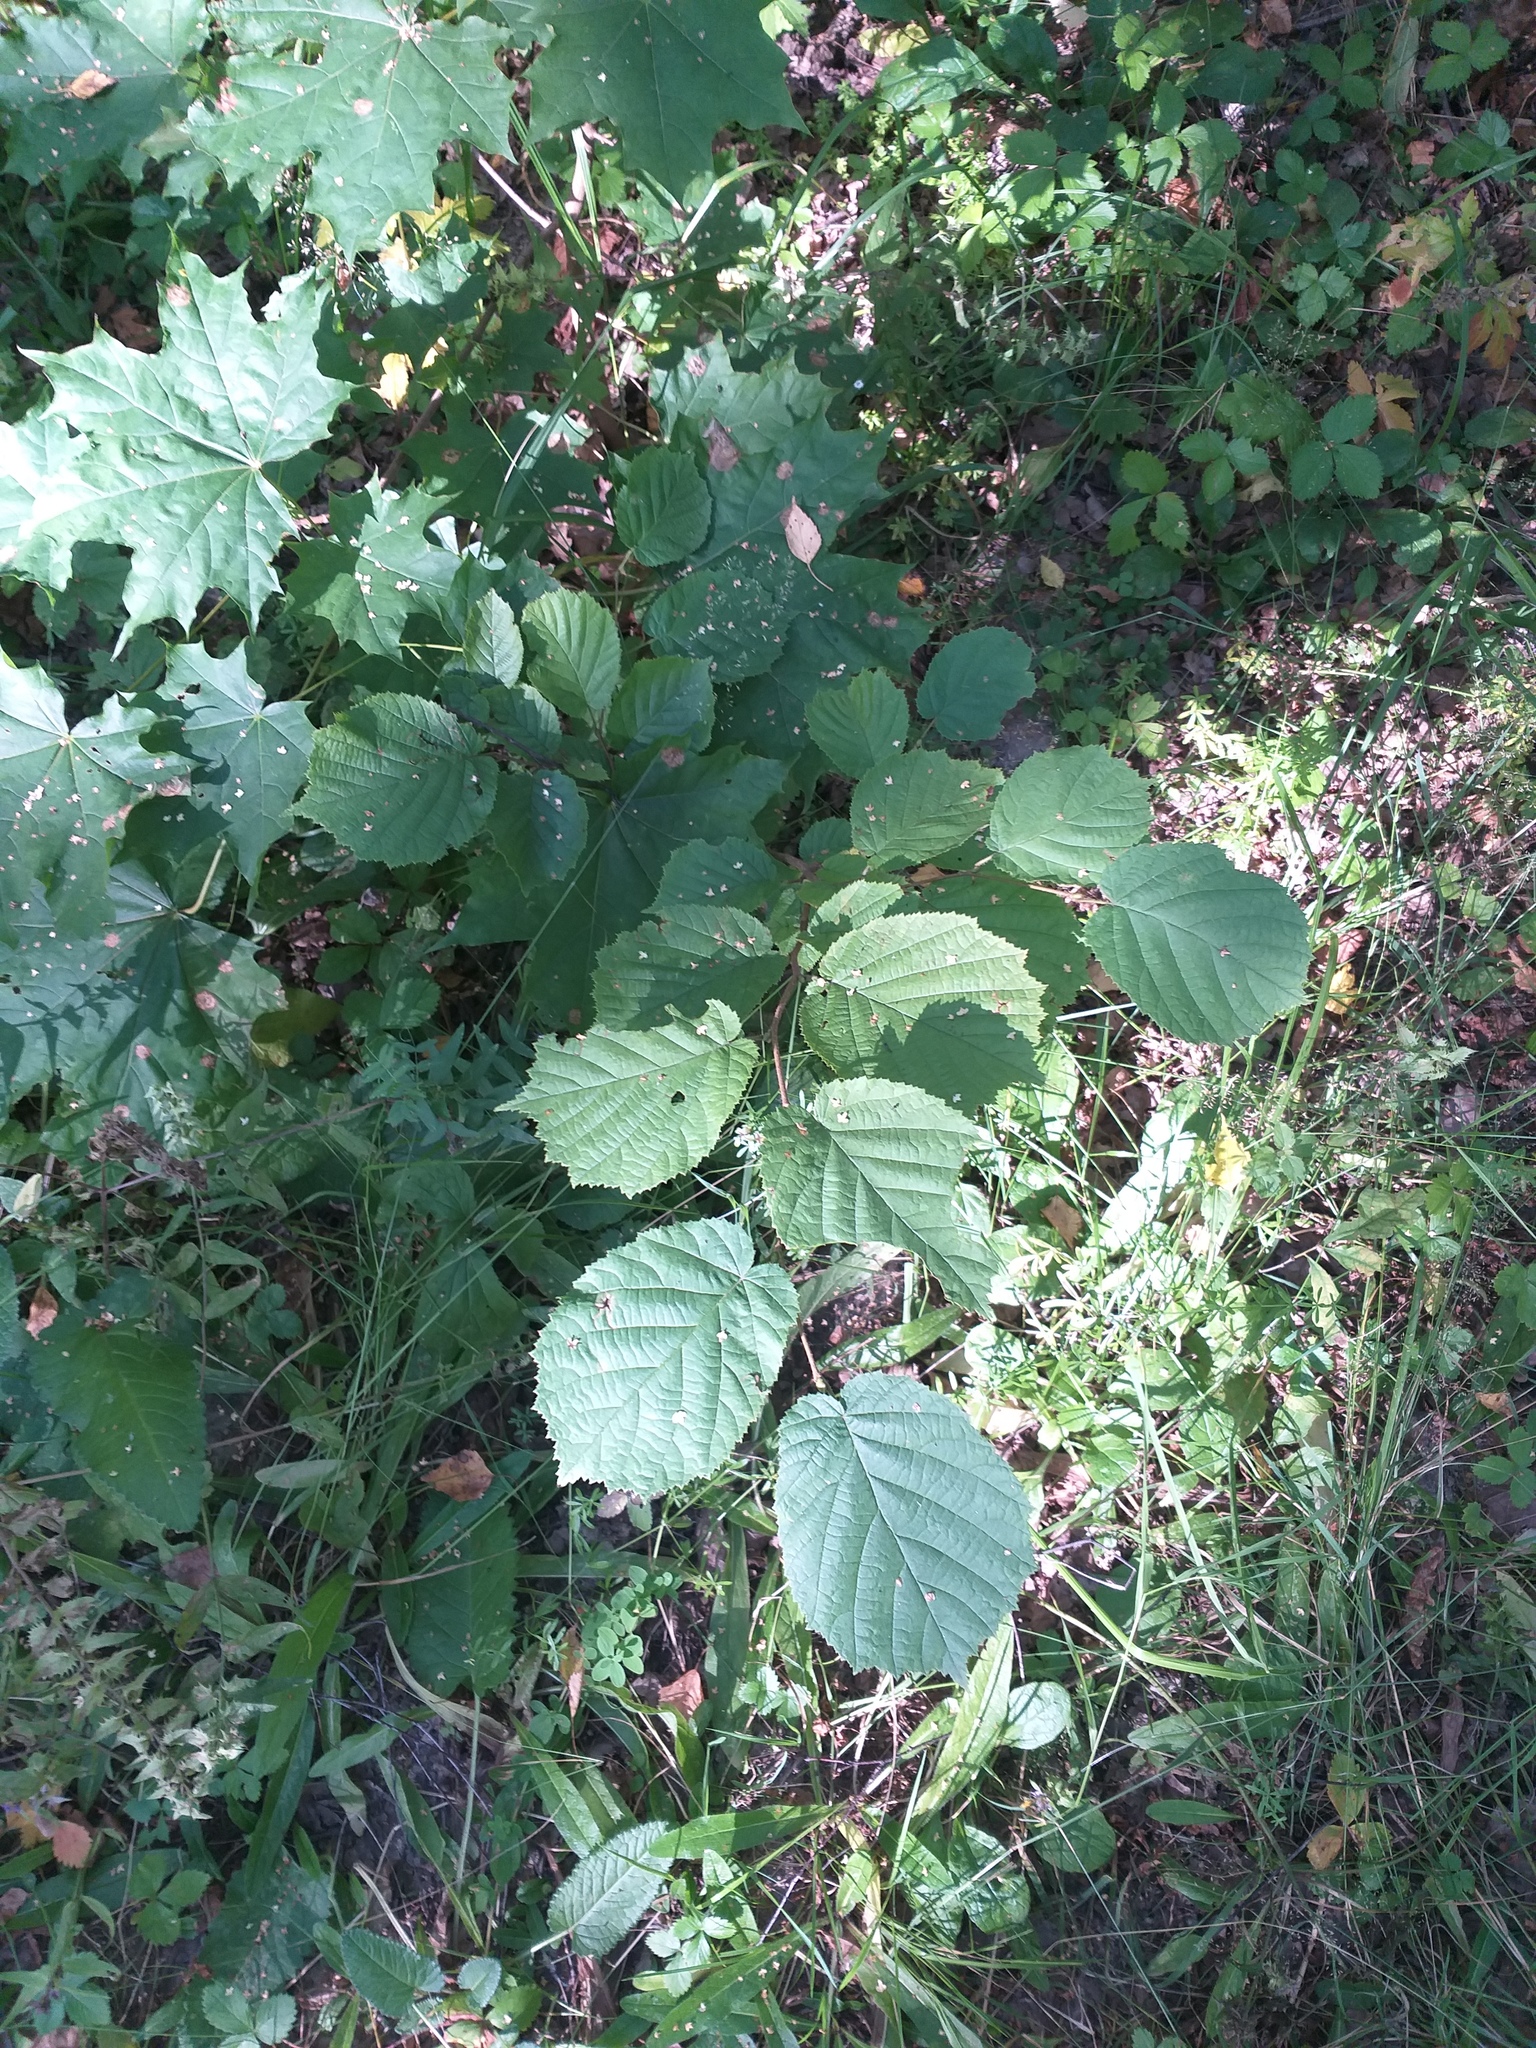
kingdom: Plantae
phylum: Tracheophyta
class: Magnoliopsida
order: Fagales
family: Betulaceae
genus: Corylus
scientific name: Corylus avellana
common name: European hazel
